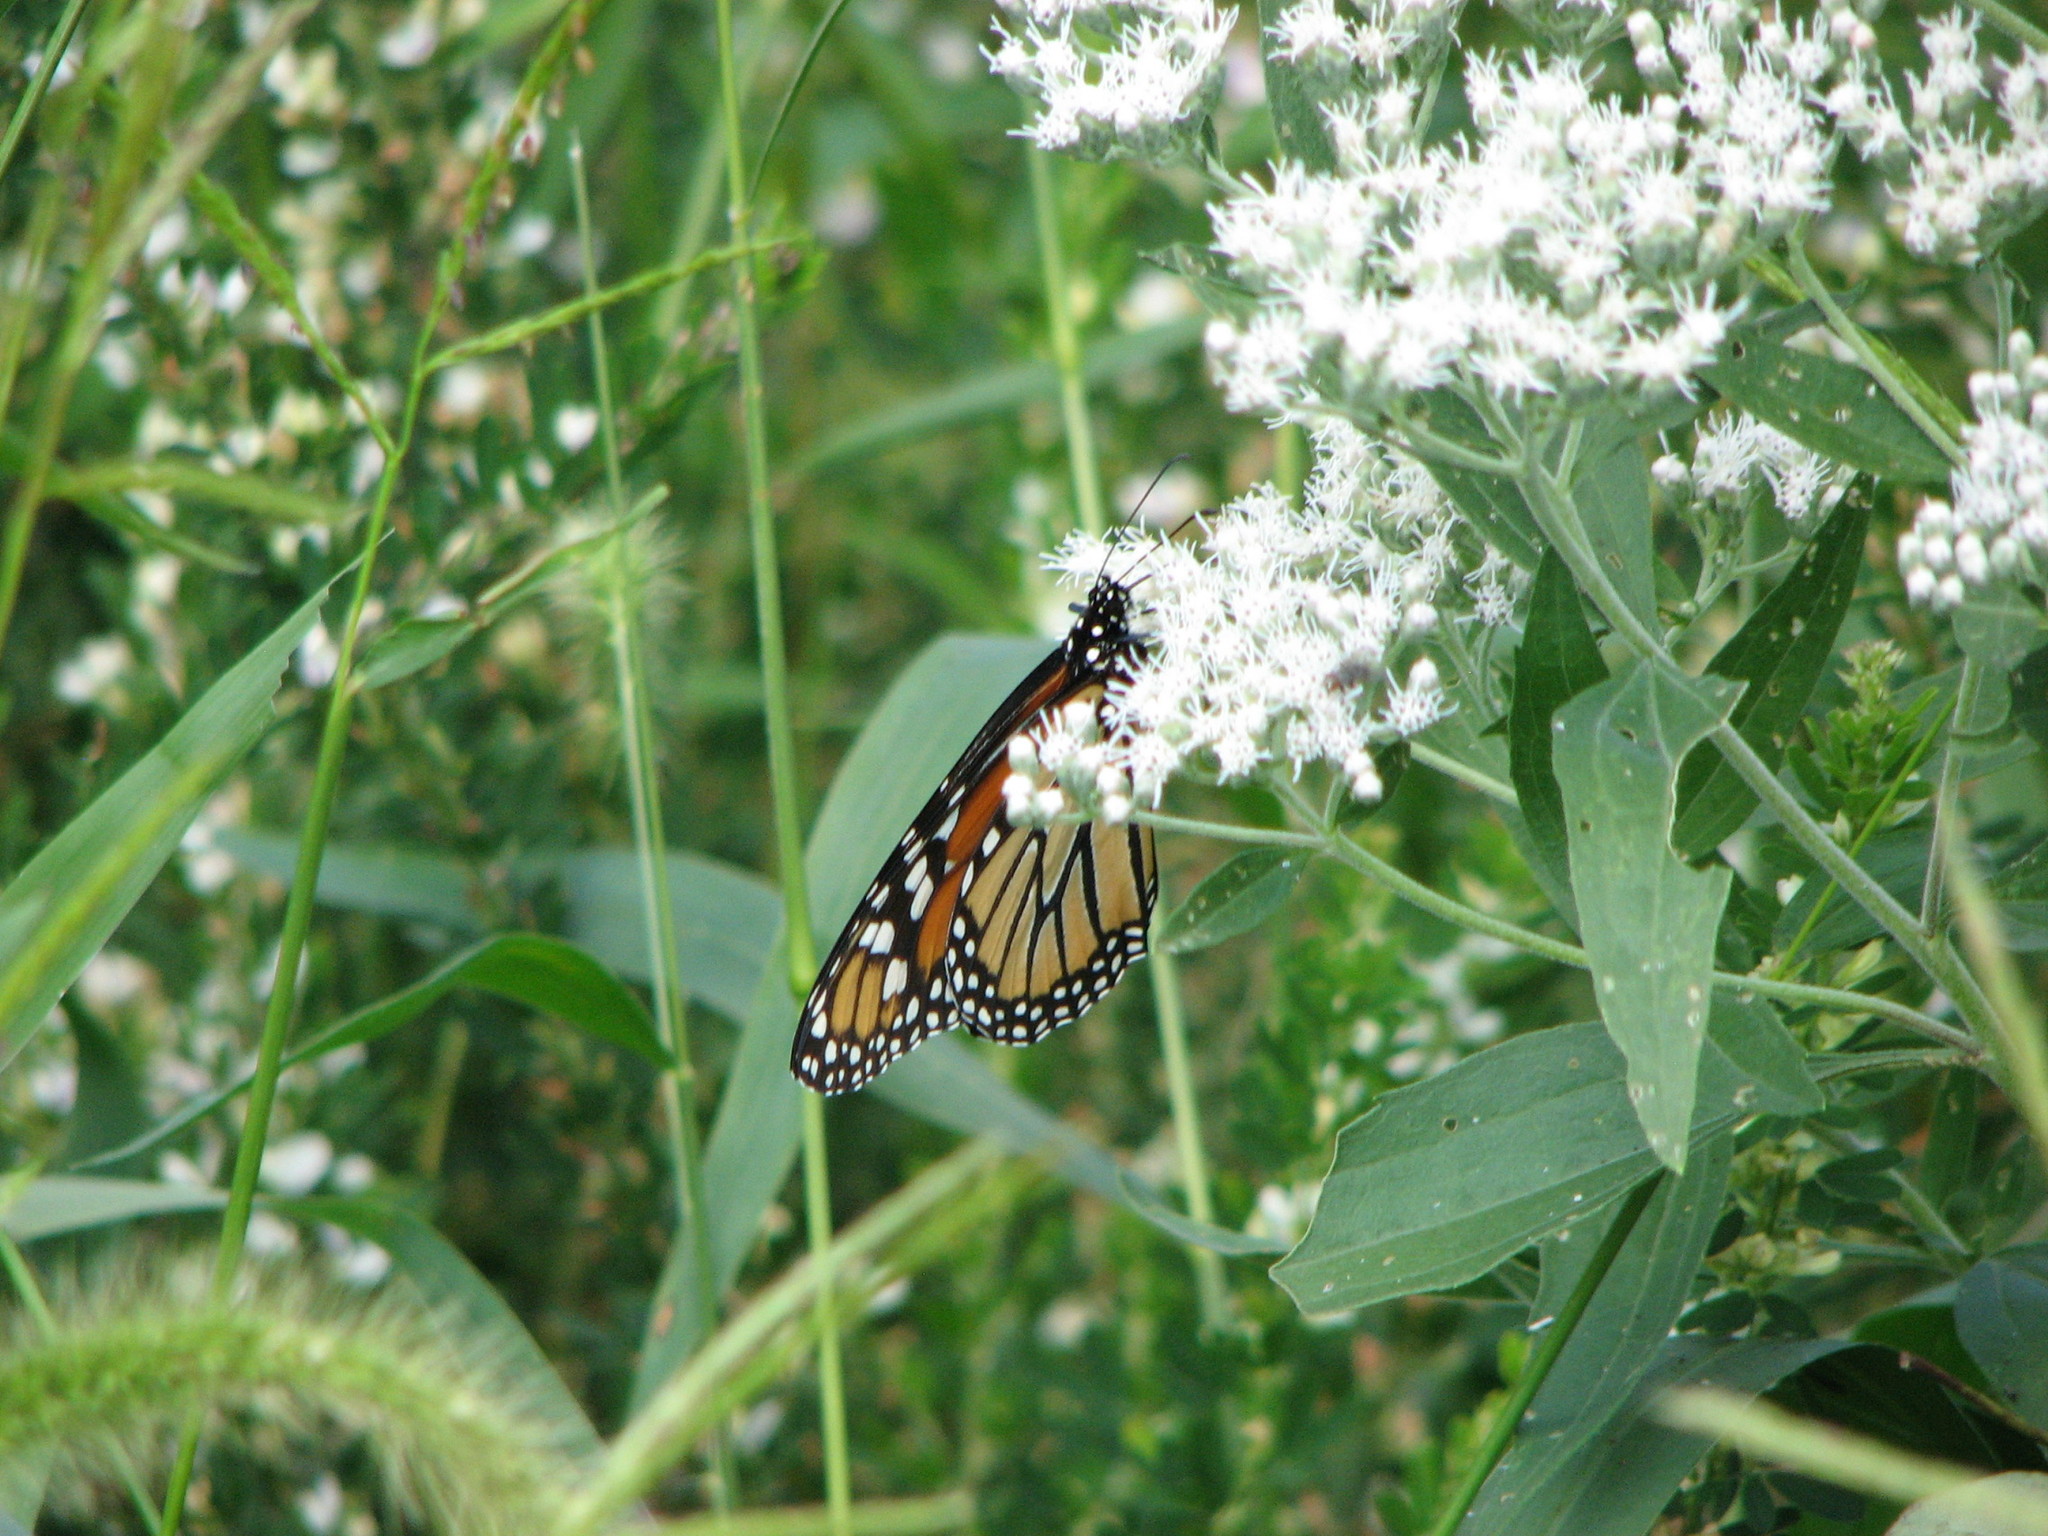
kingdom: Animalia
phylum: Arthropoda
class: Insecta
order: Lepidoptera
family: Nymphalidae
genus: Danaus
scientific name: Danaus plexippus
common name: Monarch
